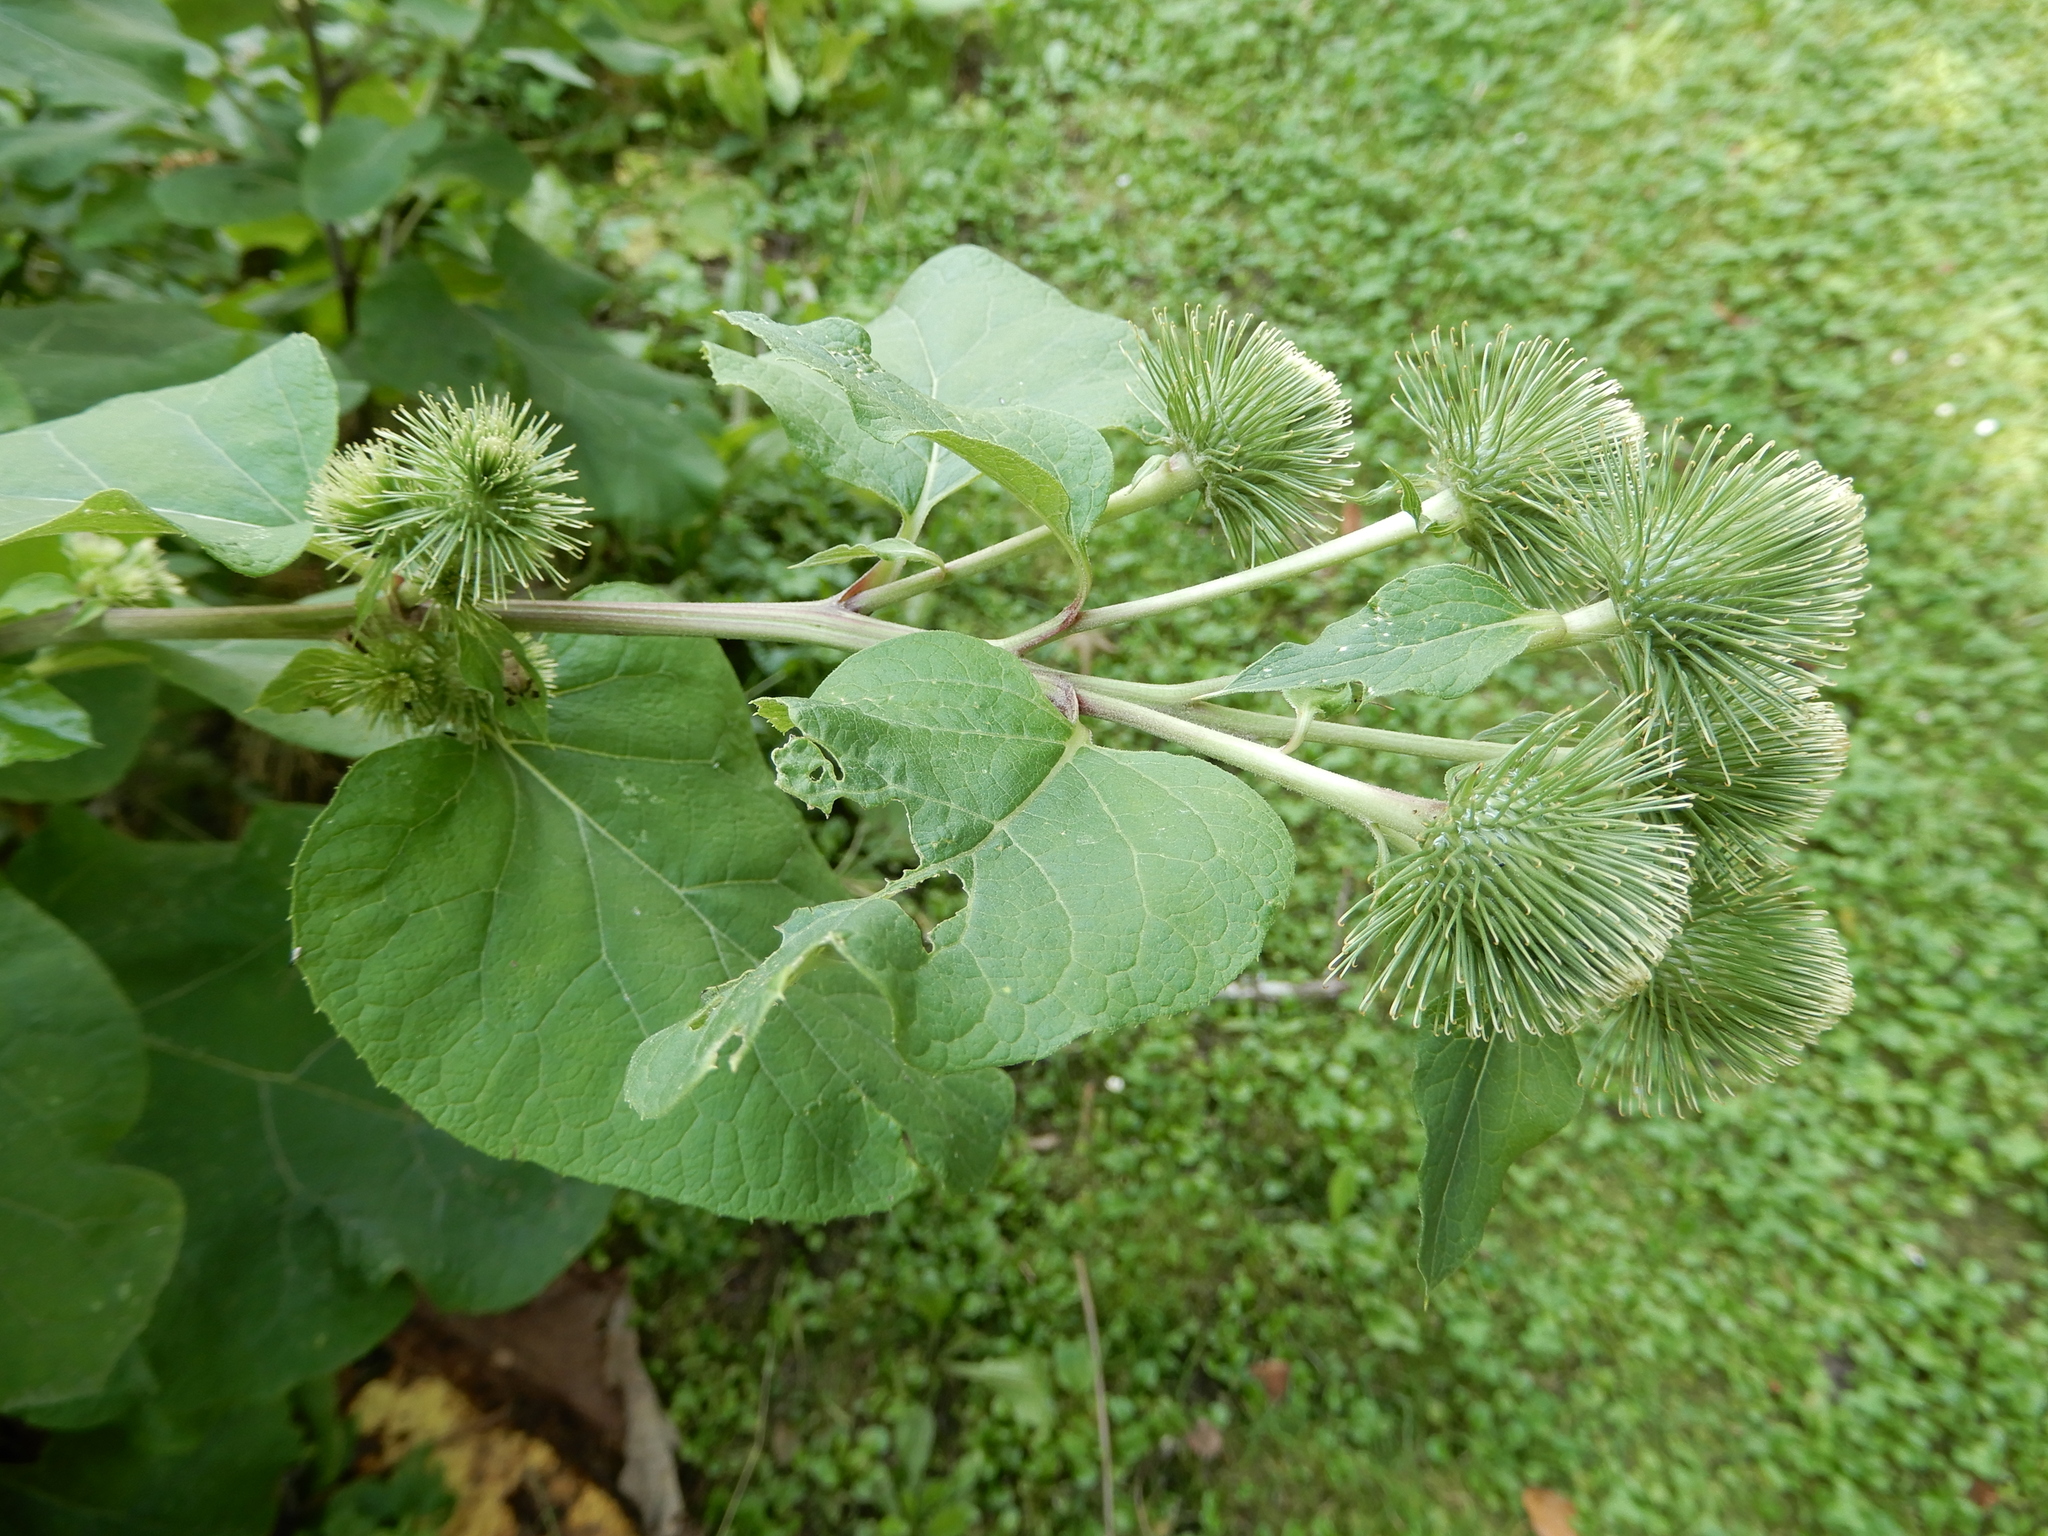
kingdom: Plantae
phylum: Tracheophyta
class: Magnoliopsida
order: Asterales
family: Asteraceae
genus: Arctium
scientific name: Arctium lappa
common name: Greater burdock
